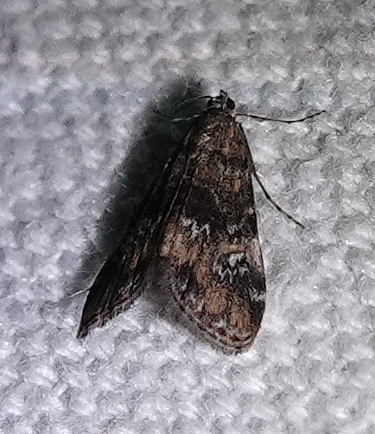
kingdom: Animalia
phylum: Arthropoda
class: Insecta
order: Lepidoptera
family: Crambidae
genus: Elophila
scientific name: Elophila obliteralis
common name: Waterlily leafcutter moth
